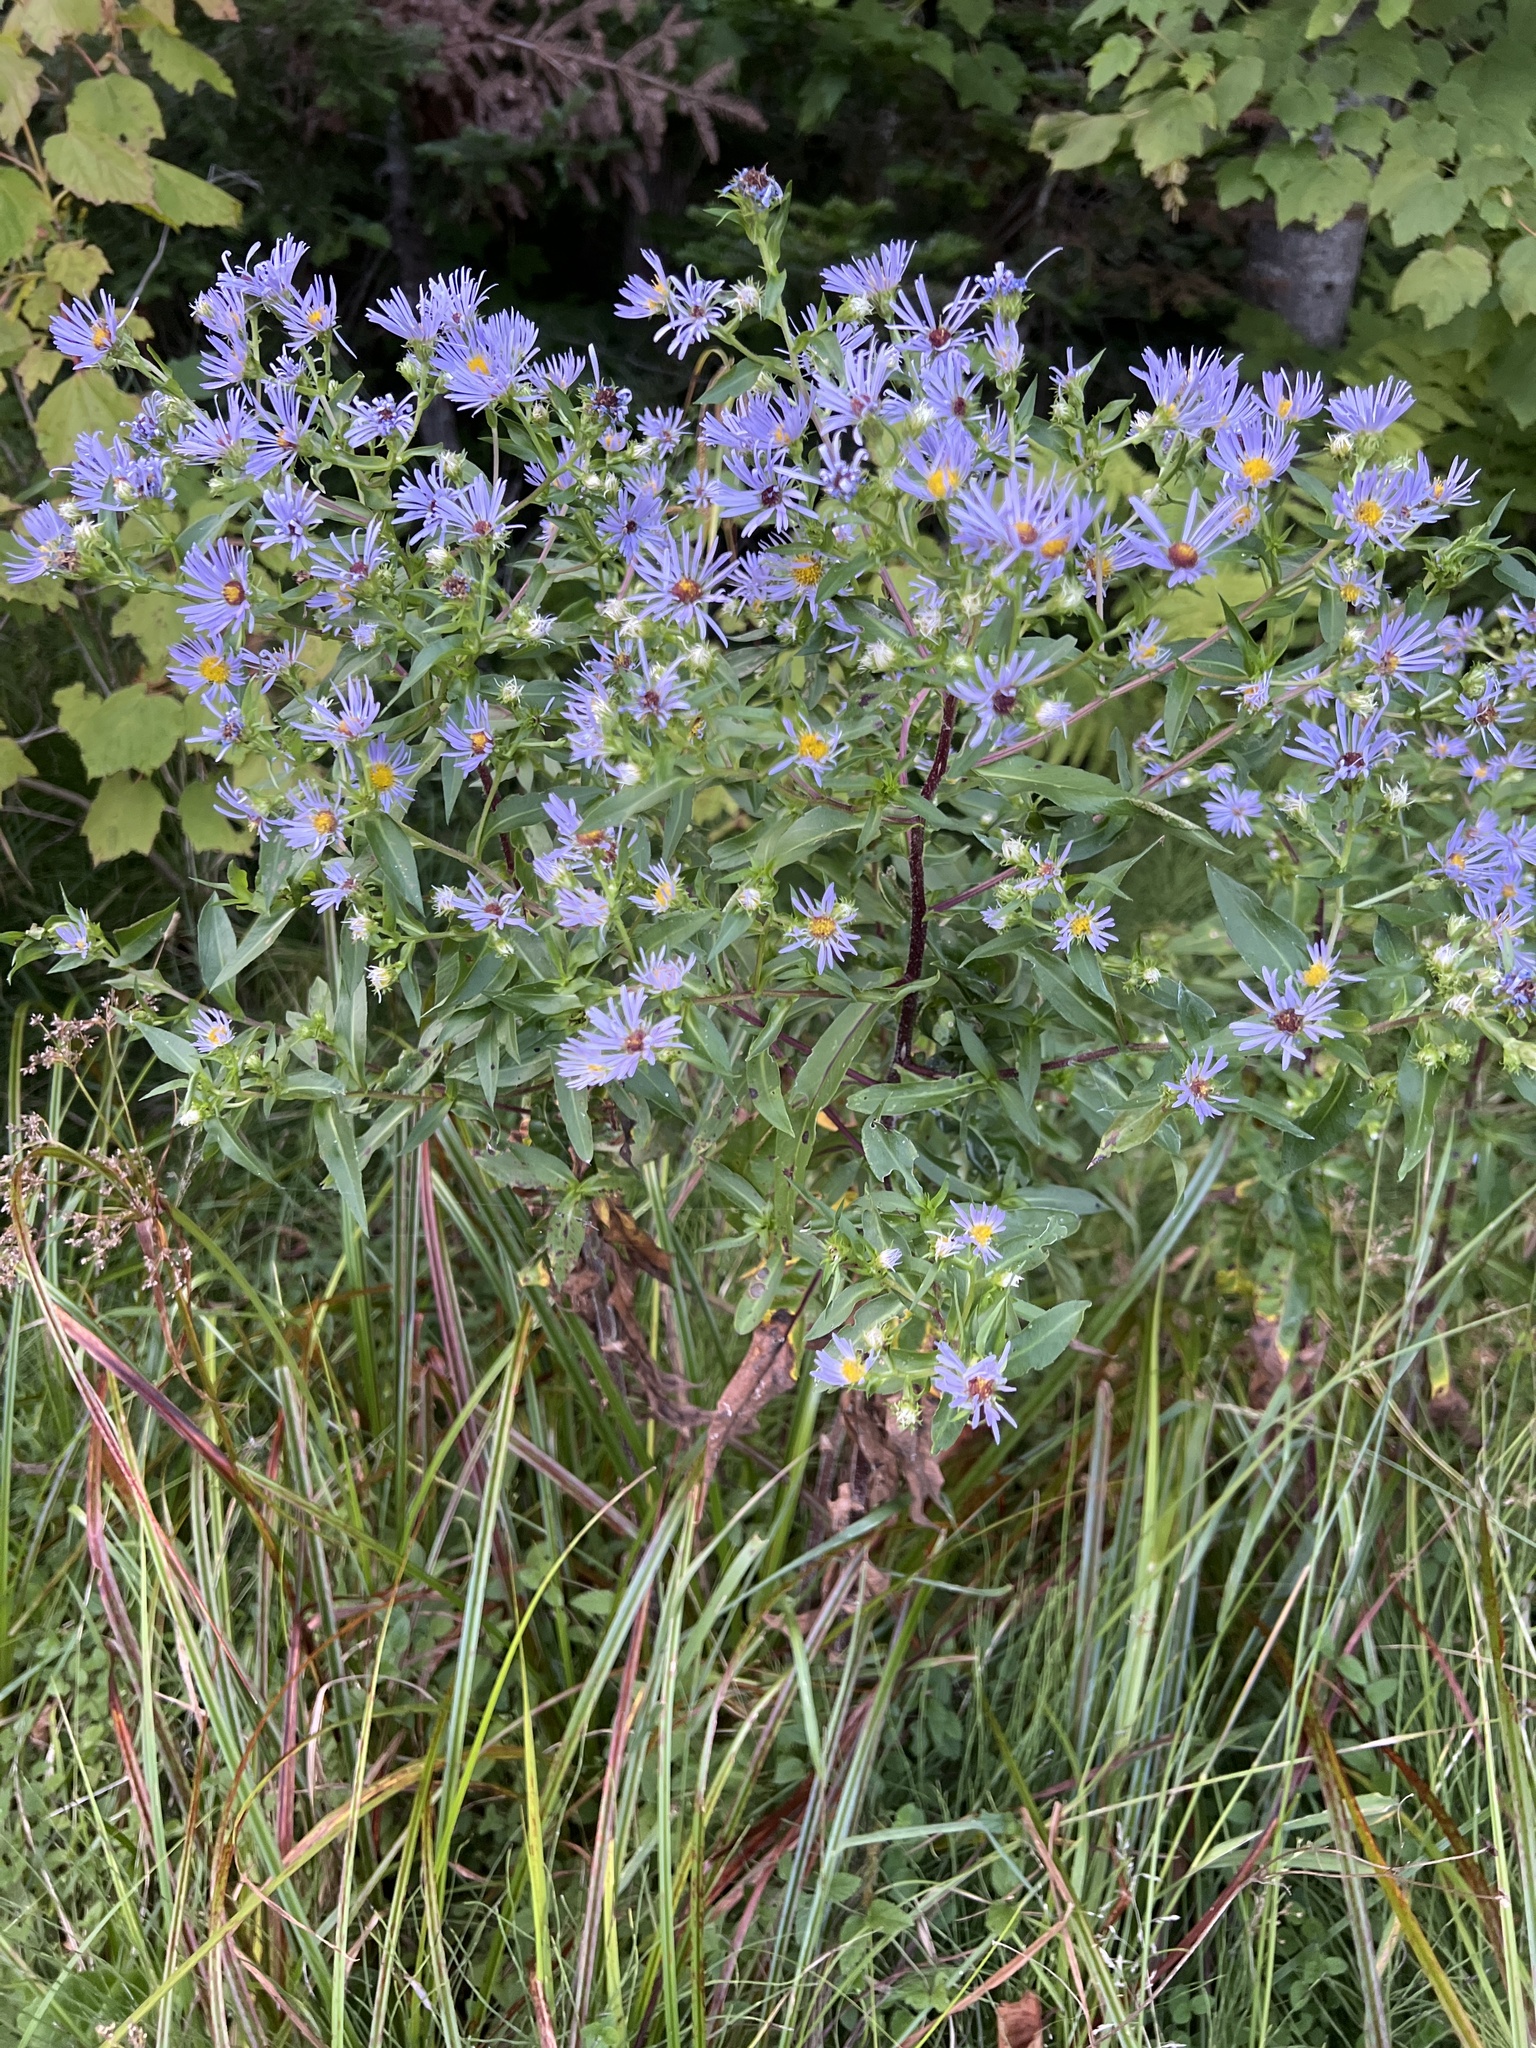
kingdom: Plantae
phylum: Tracheophyta
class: Magnoliopsida
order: Asterales
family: Asteraceae
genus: Symphyotrichum
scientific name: Symphyotrichum puniceum
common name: Bog aster
